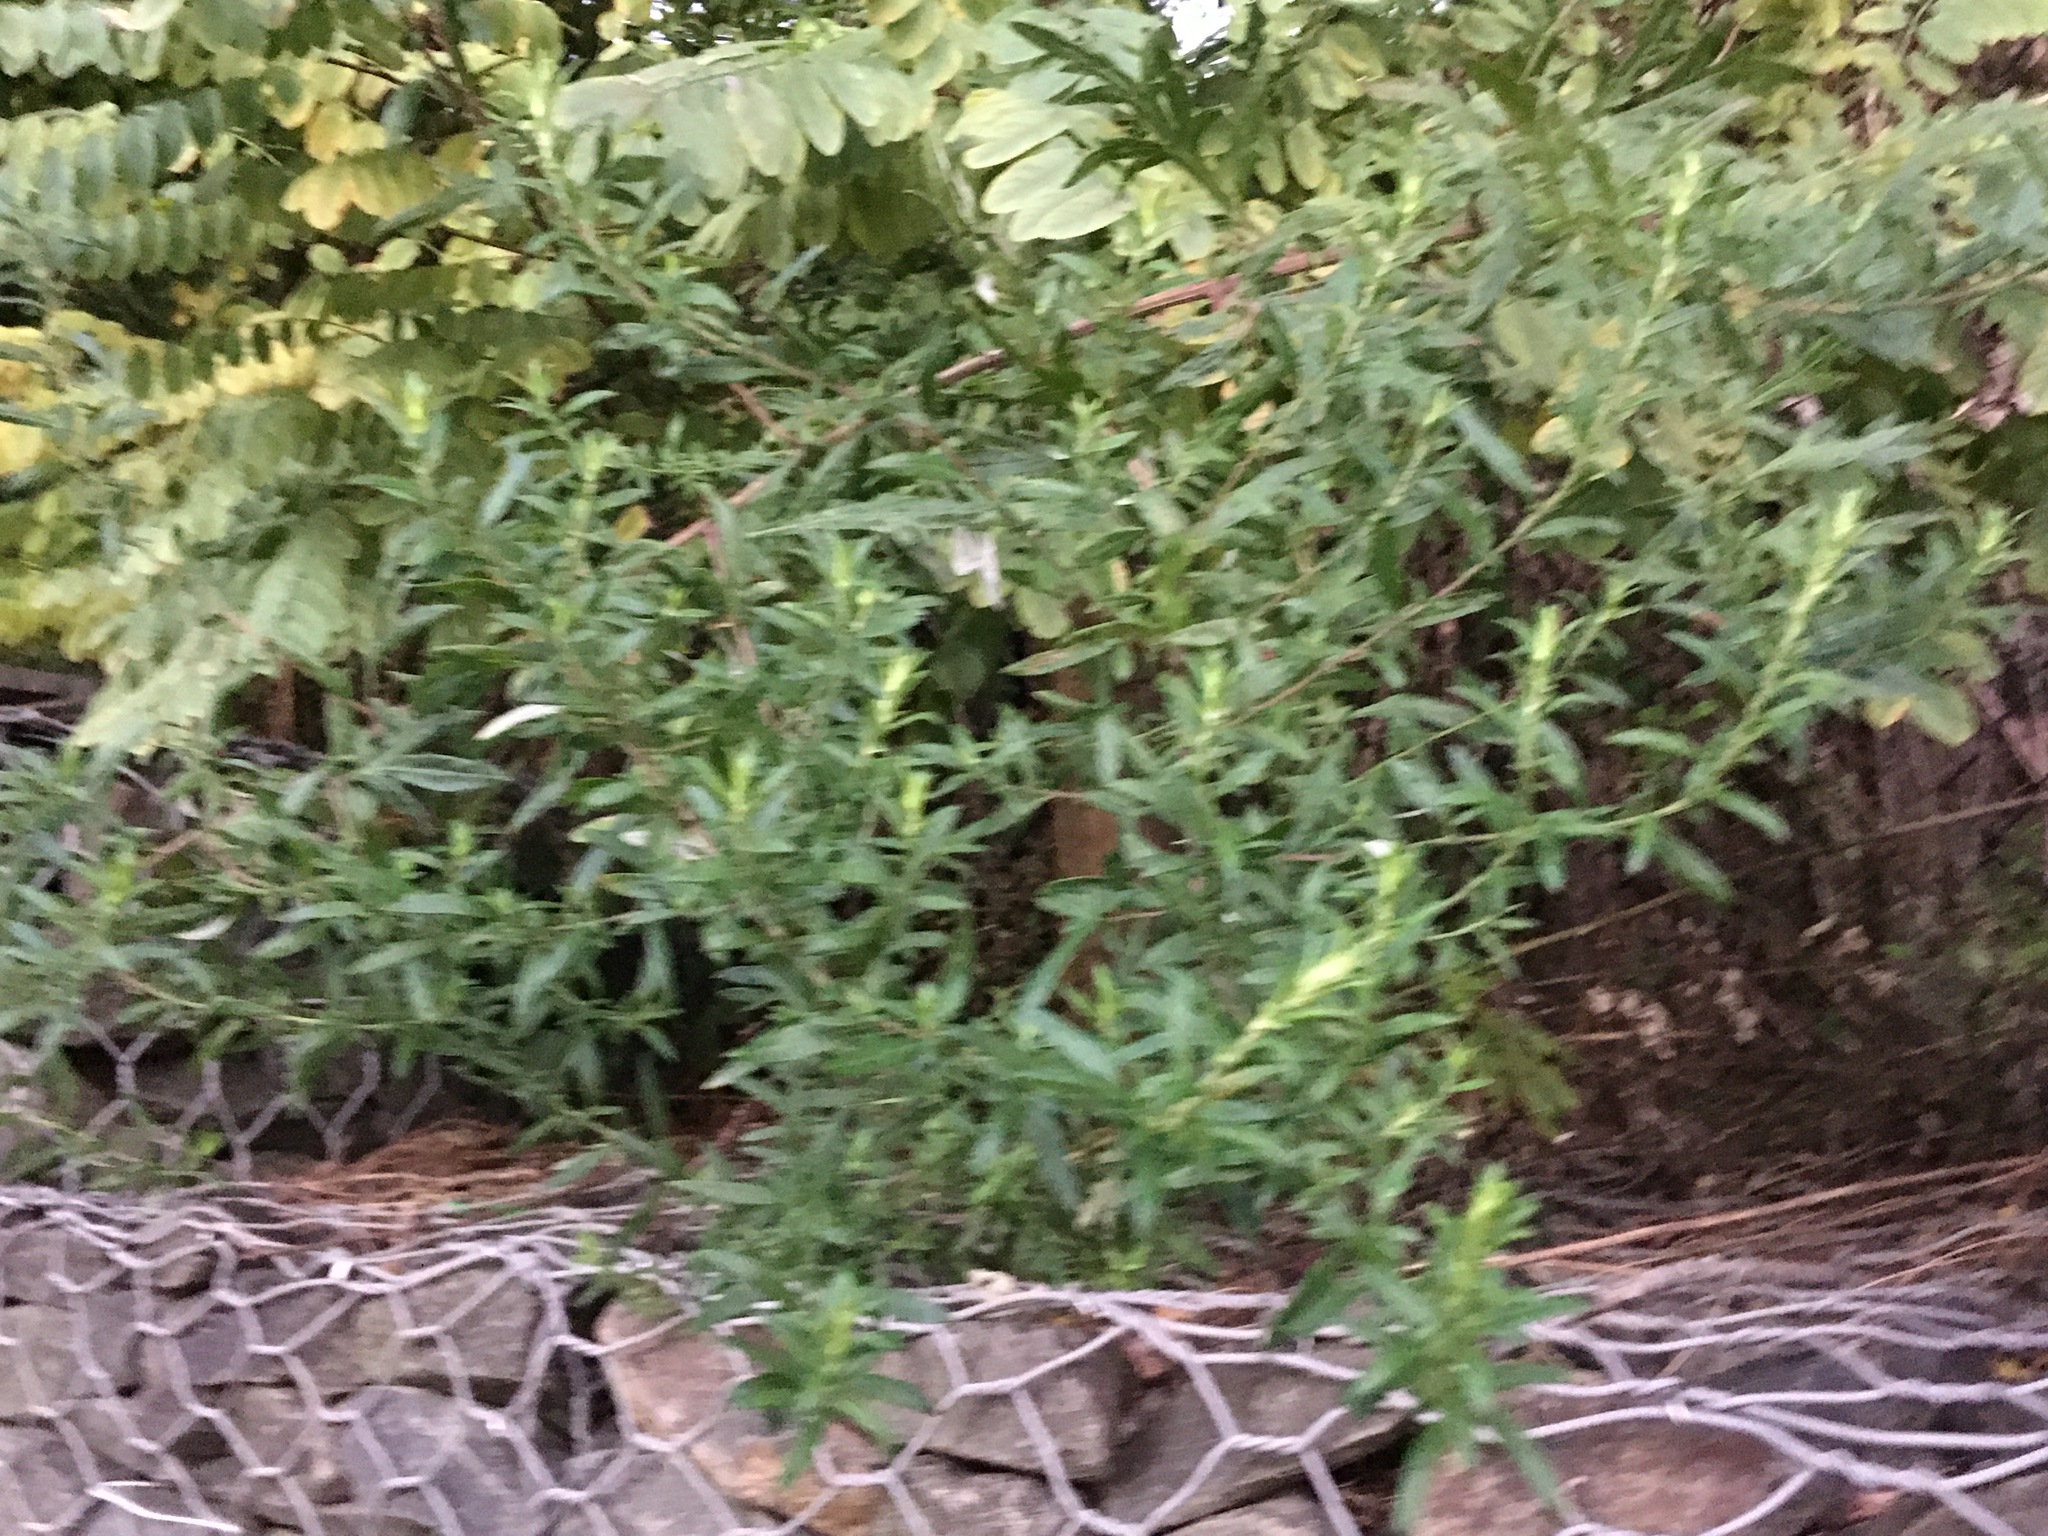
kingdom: Plantae
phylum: Tracheophyta
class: Magnoliopsida
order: Asterales
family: Asteraceae
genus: Artemisia
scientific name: Artemisia vulgaris
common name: Mugwort
